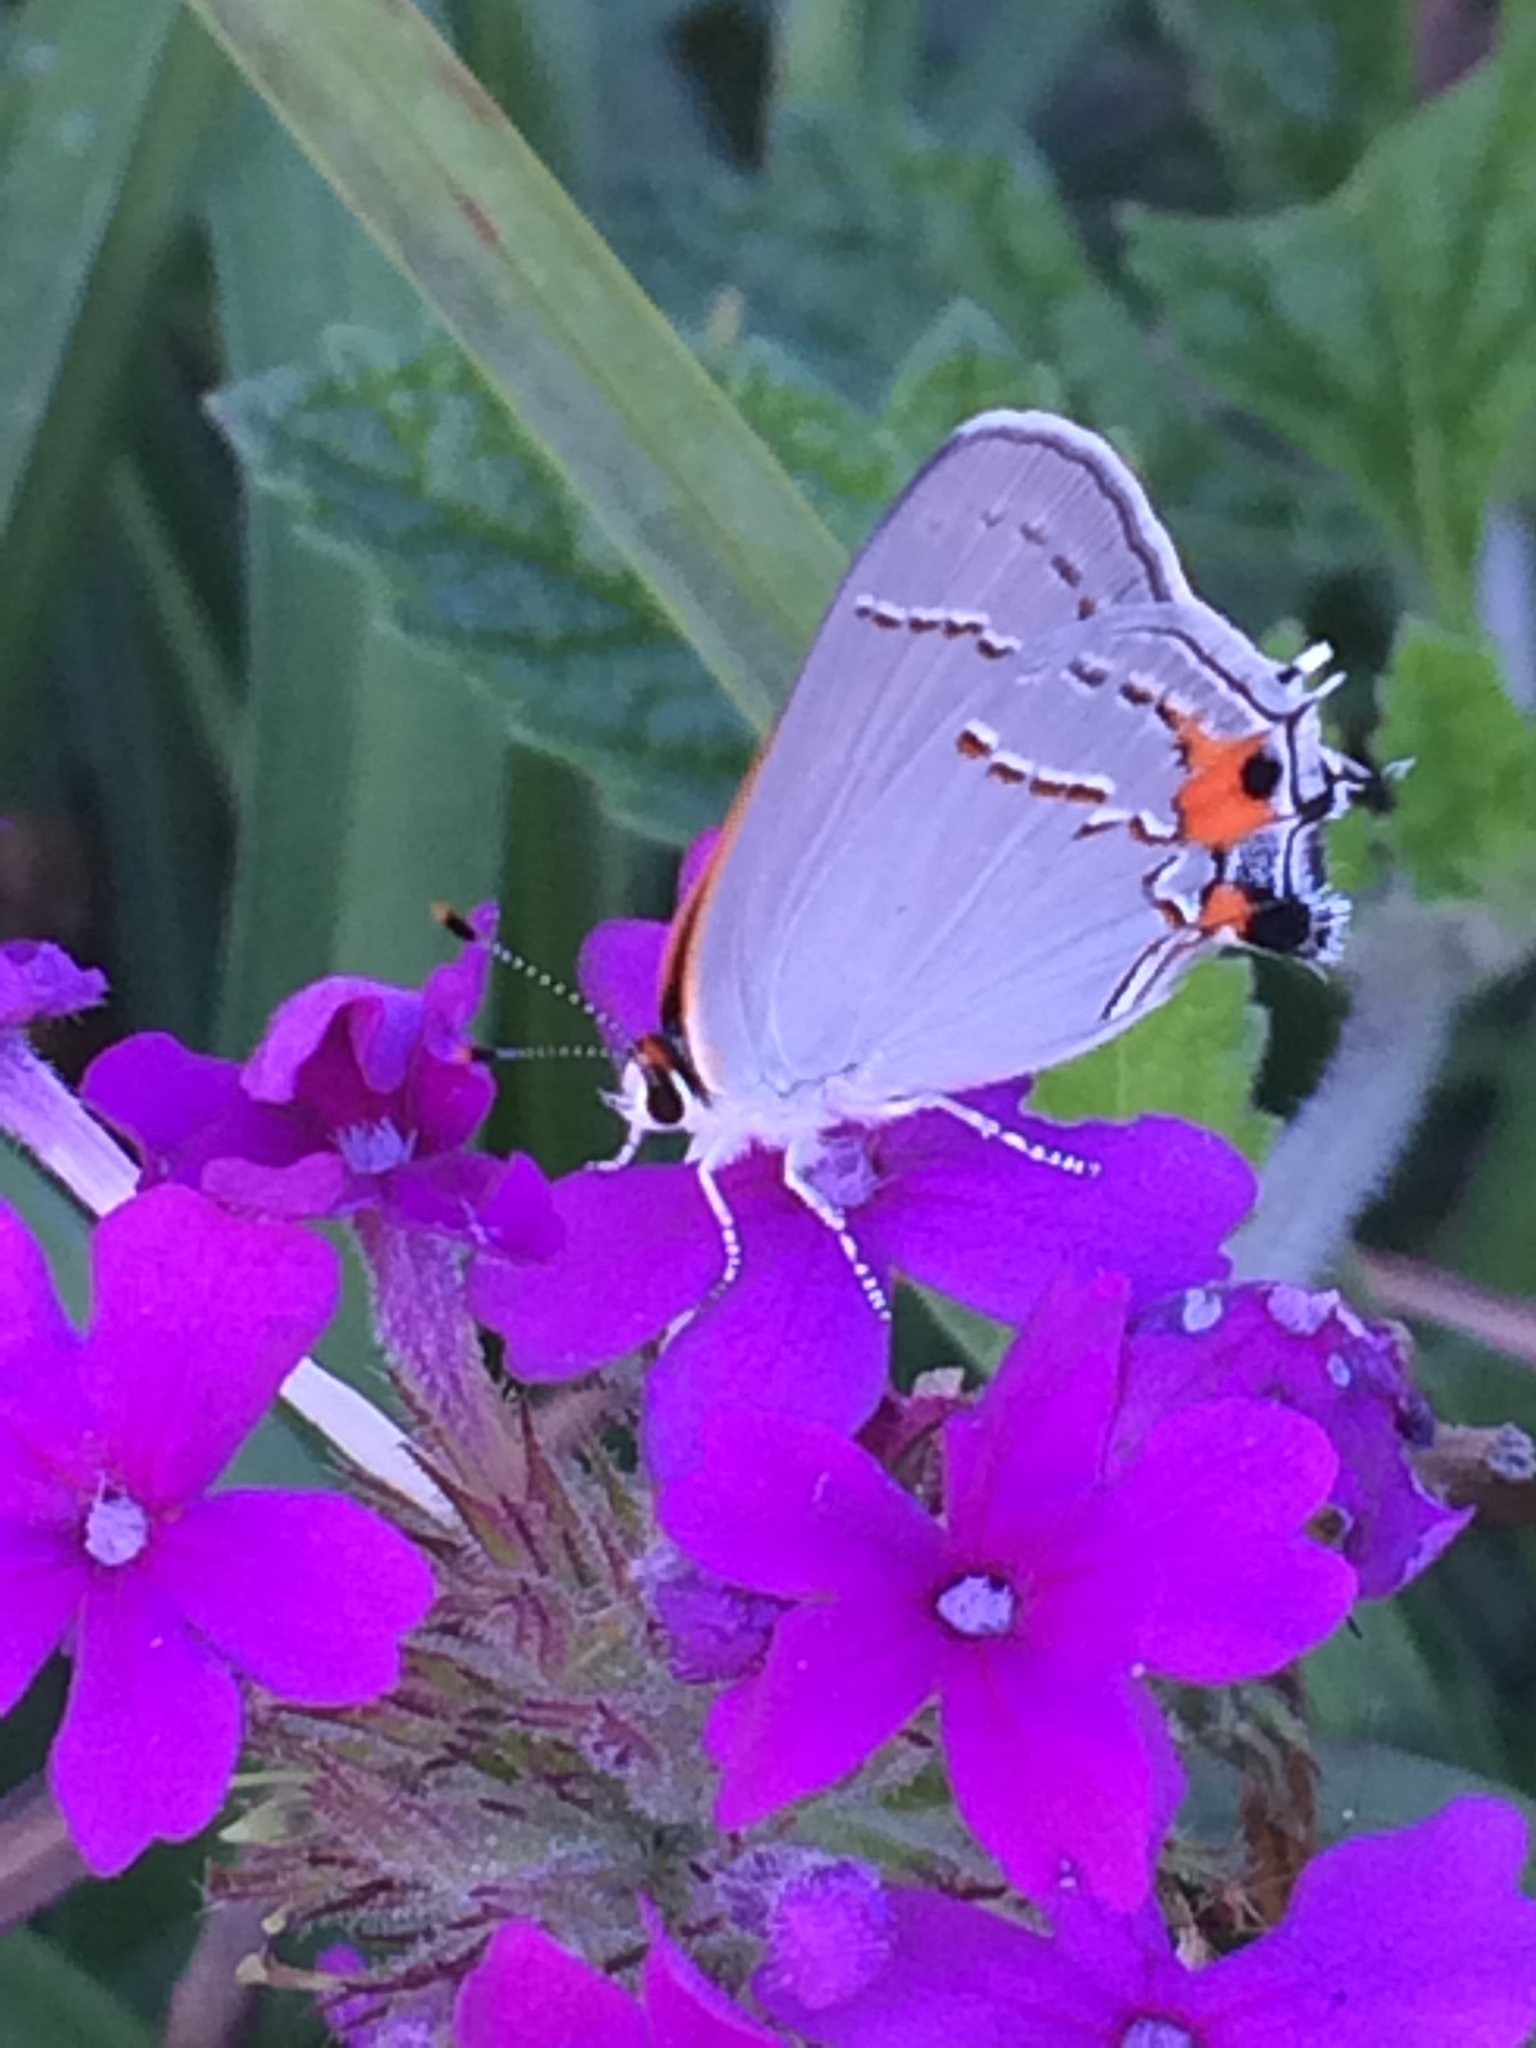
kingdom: Animalia
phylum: Arthropoda
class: Insecta
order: Lepidoptera
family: Lycaenidae
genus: Strymon
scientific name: Strymon melinus
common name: Gray hairstreak
